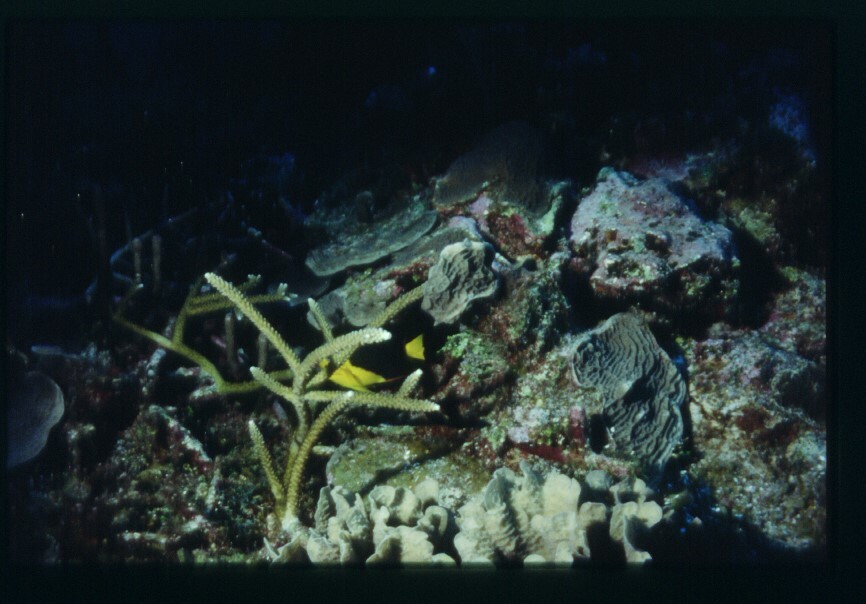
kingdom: Animalia
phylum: Chordata
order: Perciformes
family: Pomacanthidae
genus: Holacanthus
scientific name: Holacanthus tricolor
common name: Rock beauty
